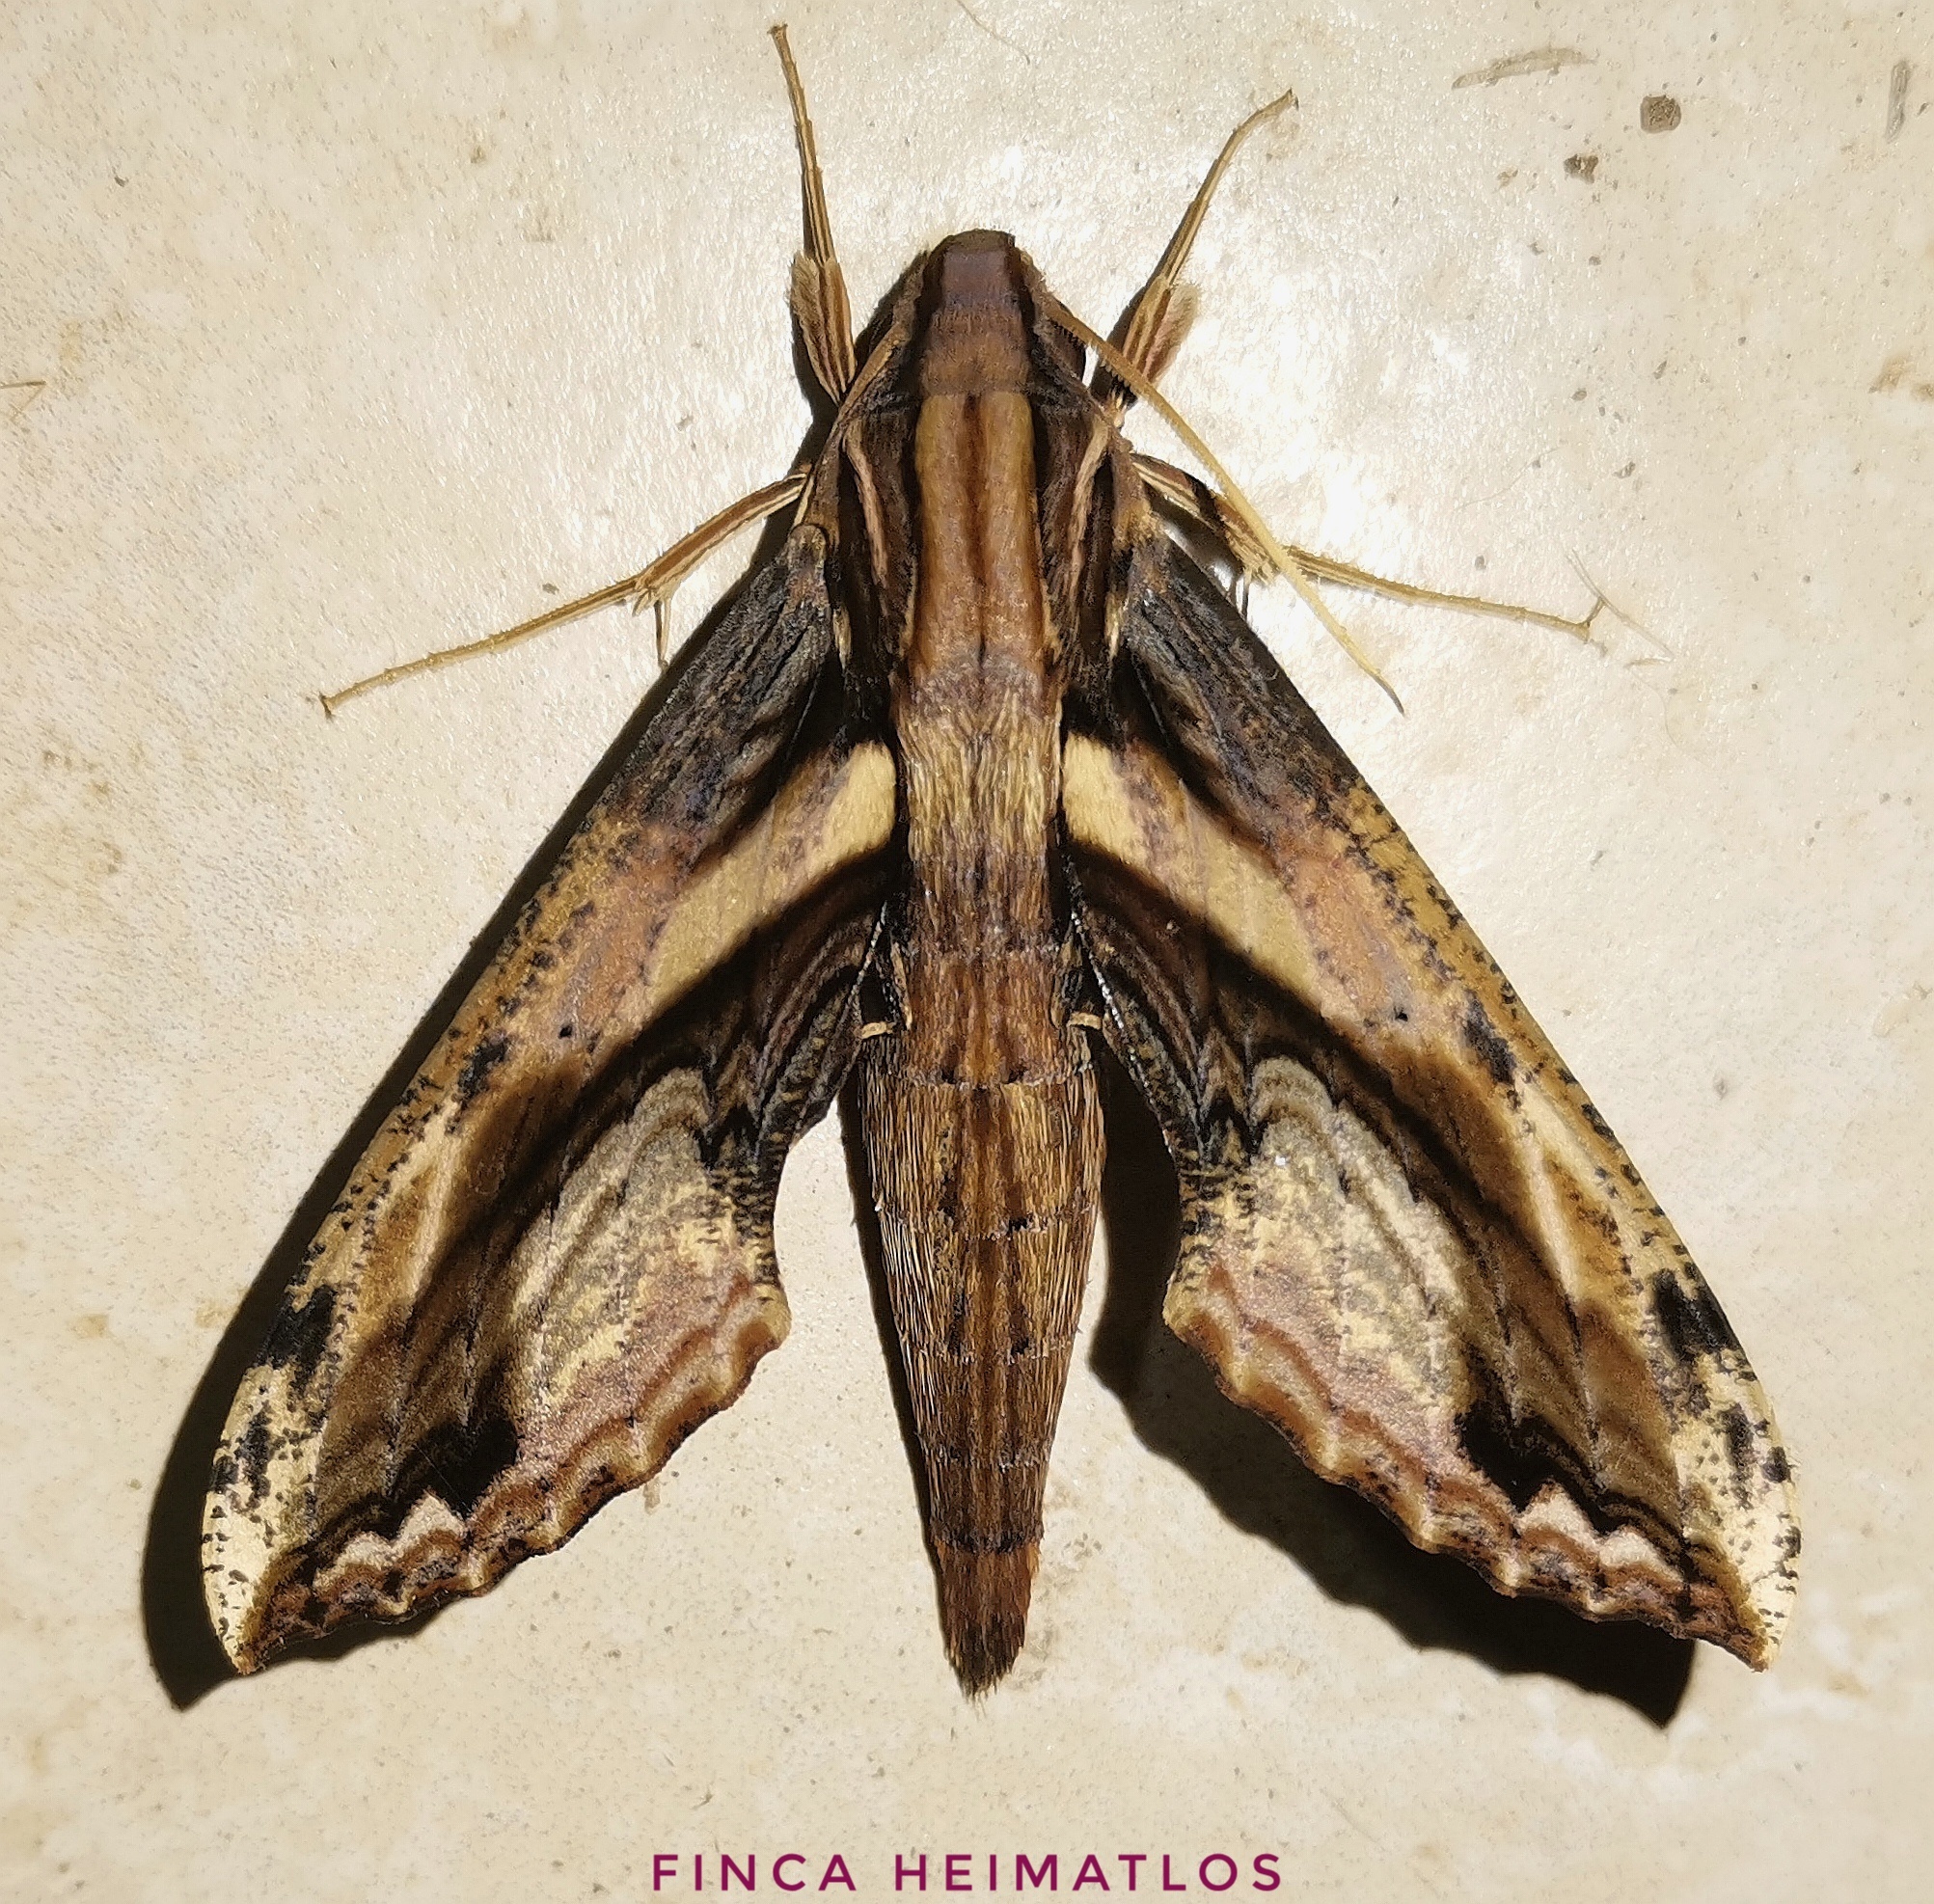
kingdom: Animalia
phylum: Arthropoda
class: Insecta
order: Lepidoptera
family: Sphingidae
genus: Xylophanes
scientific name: Xylophanes ceratomioides
